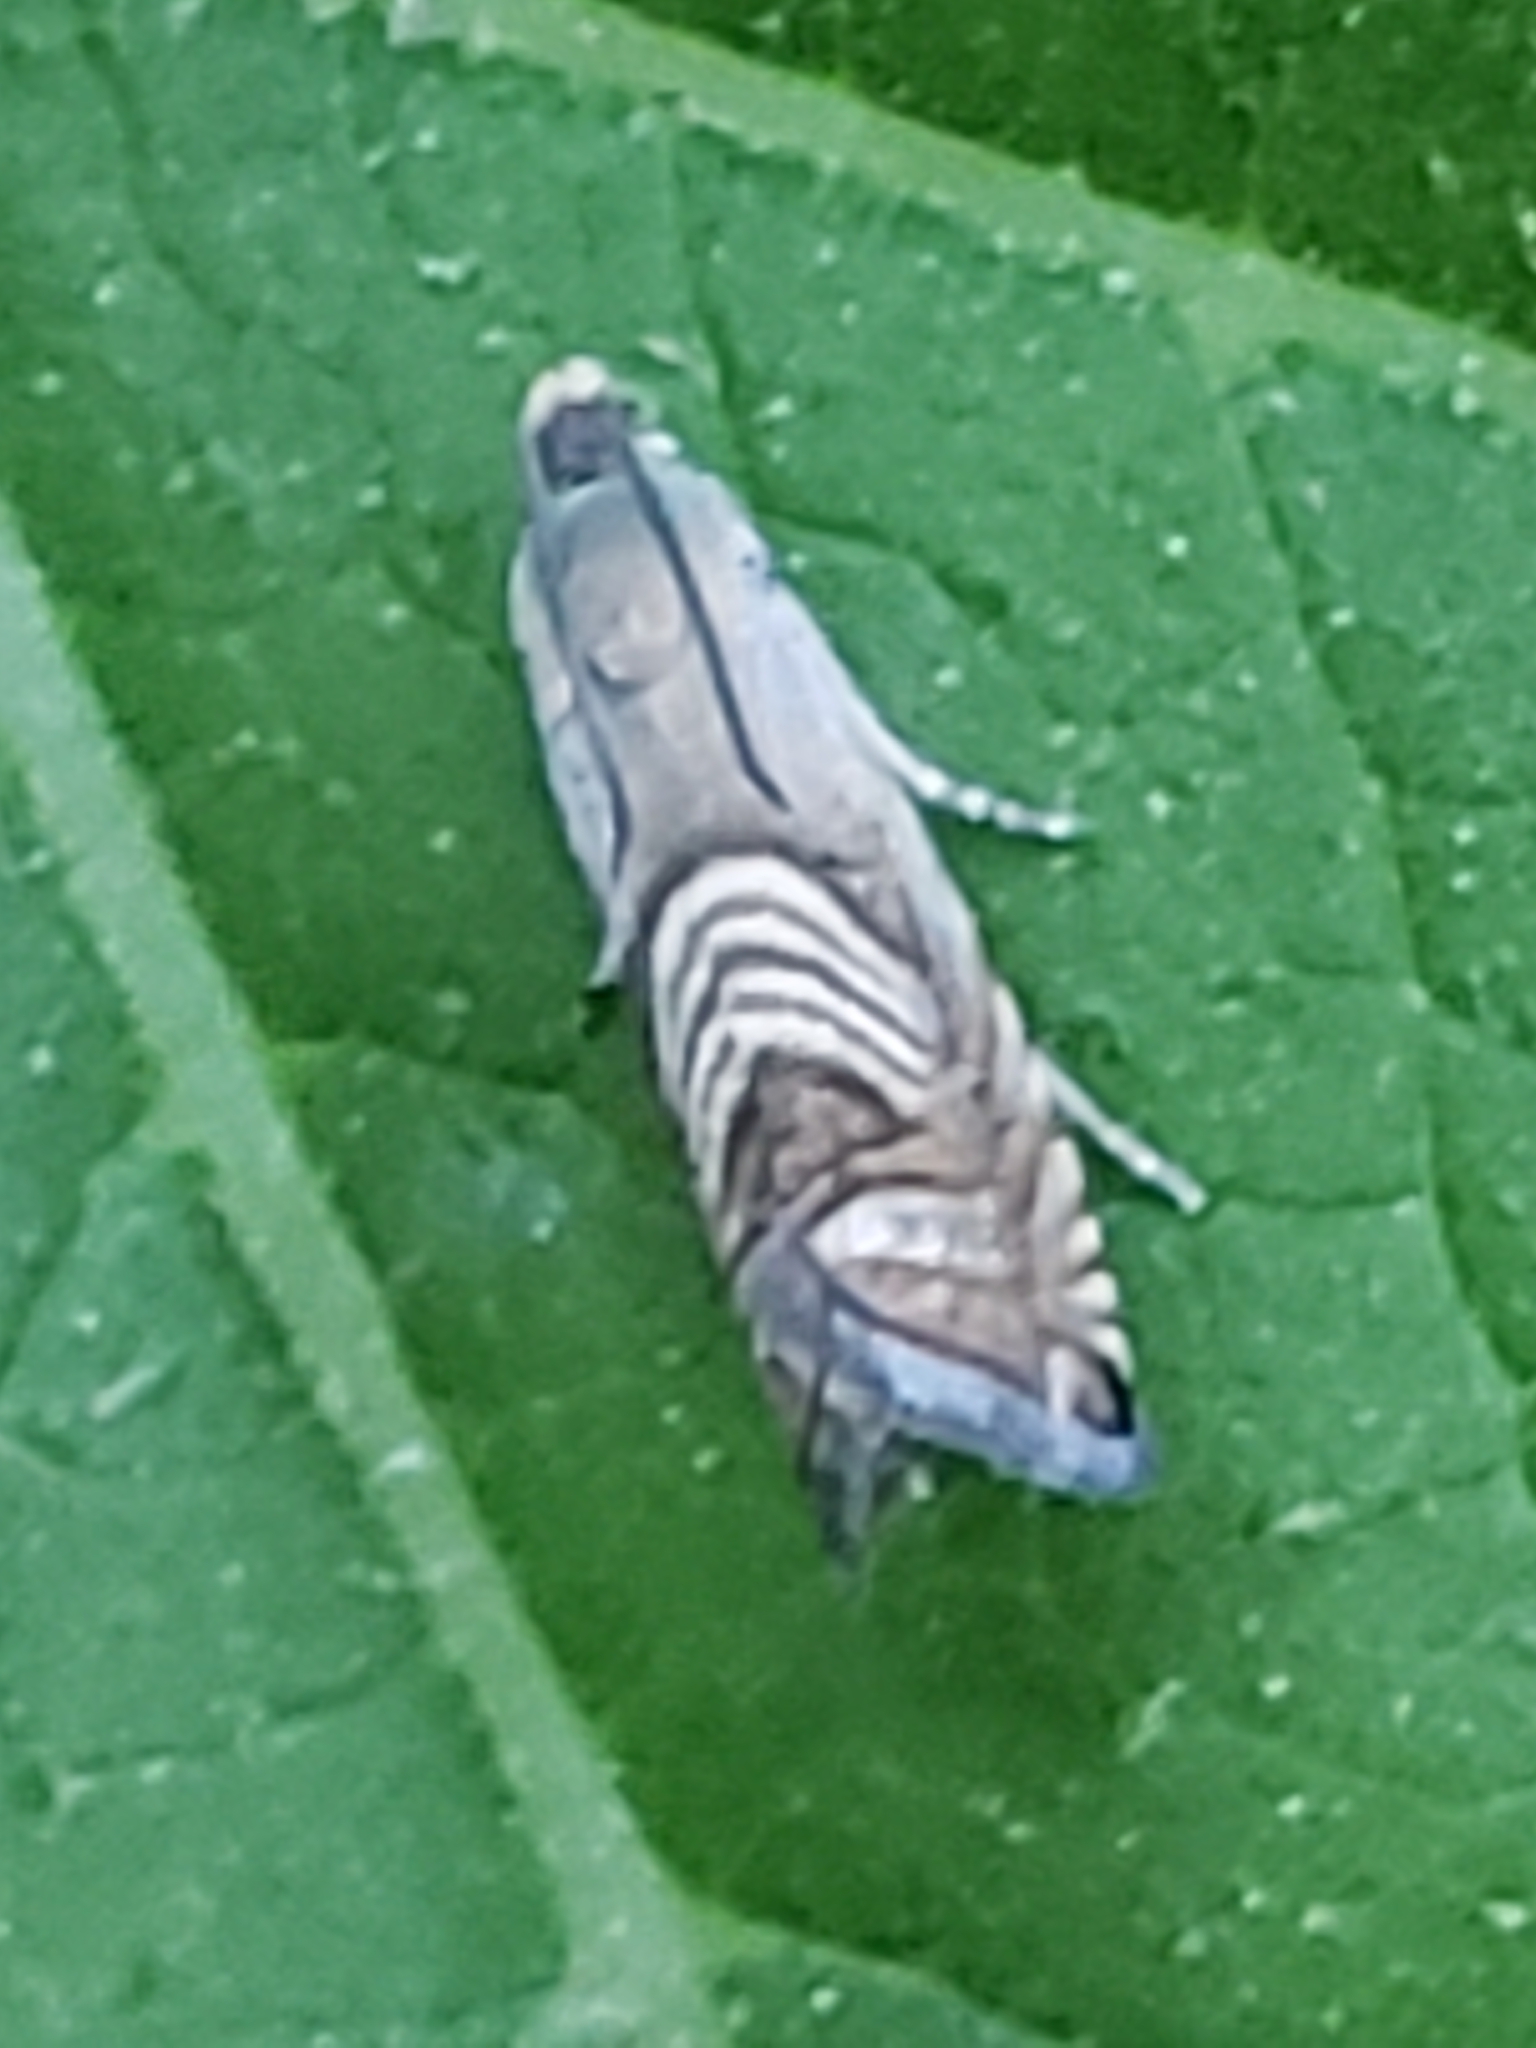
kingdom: Animalia
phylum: Arthropoda
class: Insecta
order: Lepidoptera
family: Tortricidae
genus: Grapholita
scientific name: Grapholita delineana
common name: Eurasian hemp moth
